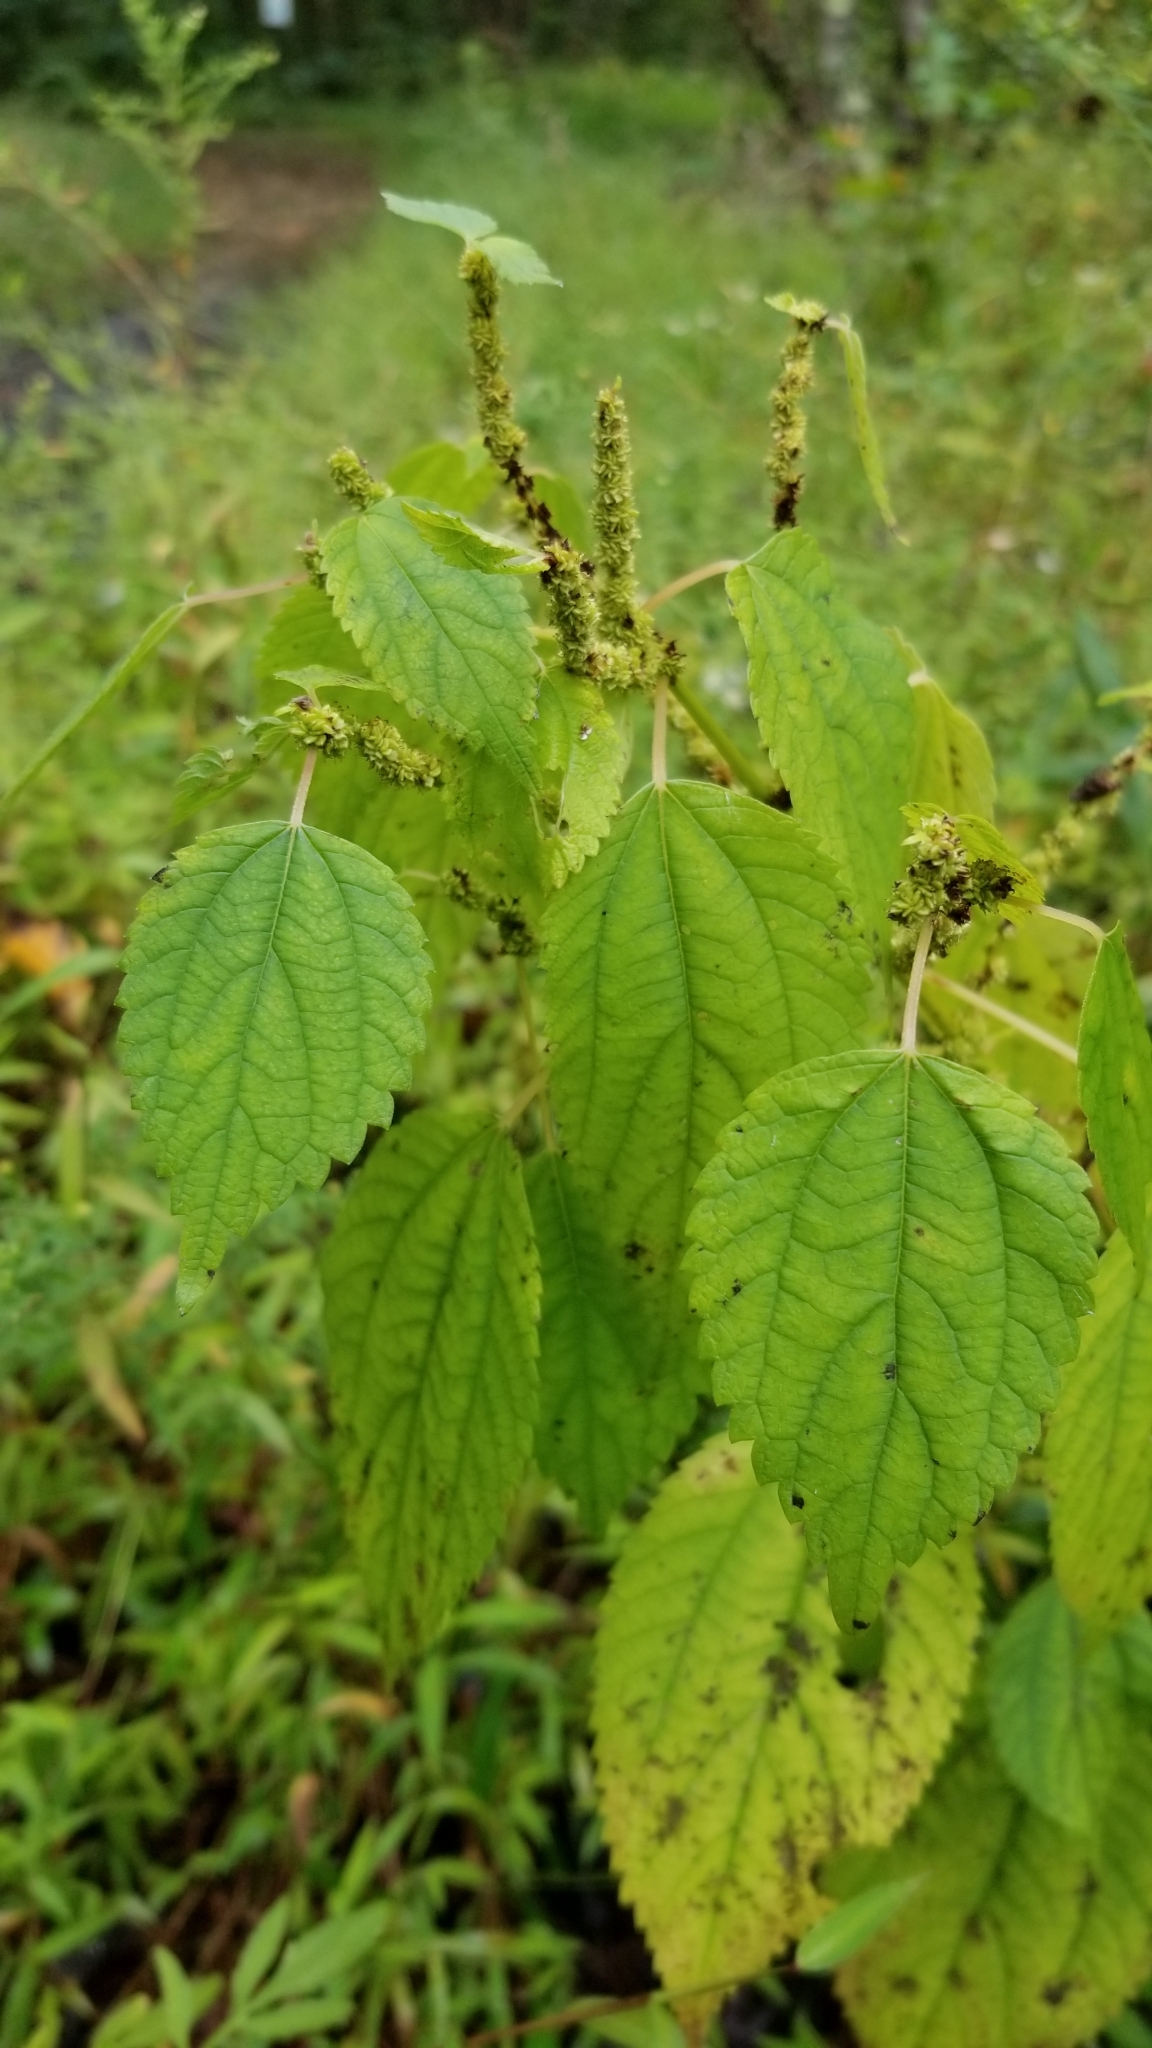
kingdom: Plantae
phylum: Tracheophyta
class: Magnoliopsida
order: Rosales
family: Urticaceae
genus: Boehmeria
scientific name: Boehmeria cylindrica
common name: Bog-hemp
